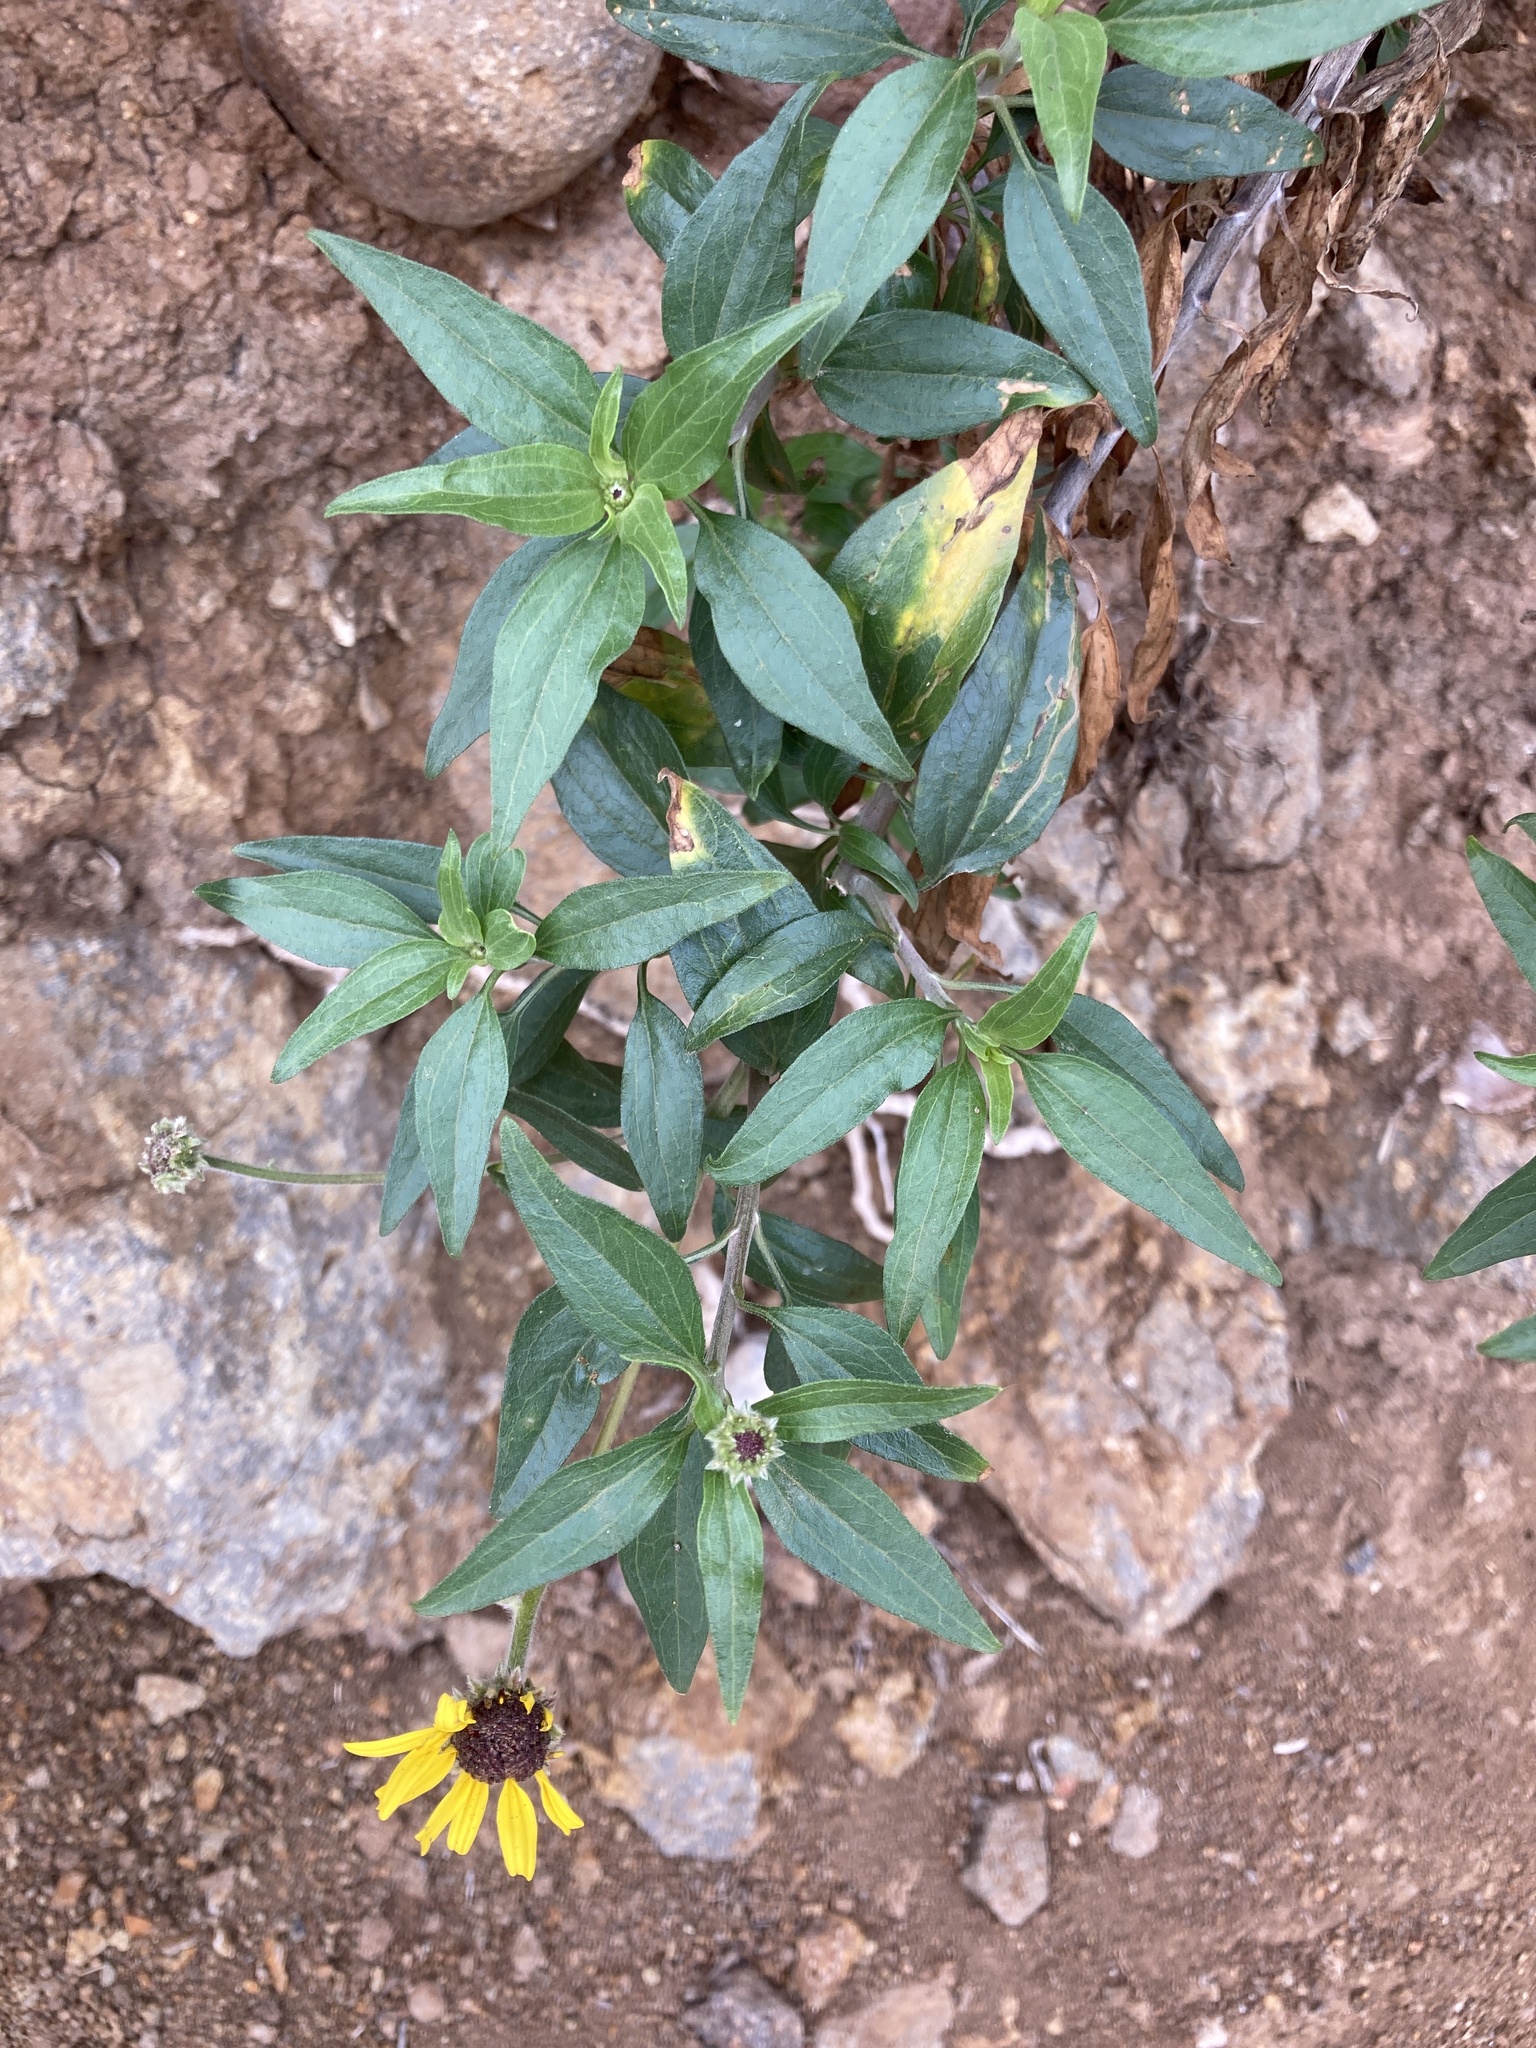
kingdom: Plantae
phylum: Tracheophyta
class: Magnoliopsida
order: Asterales
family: Asteraceae
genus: Encelia
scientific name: Encelia californica
